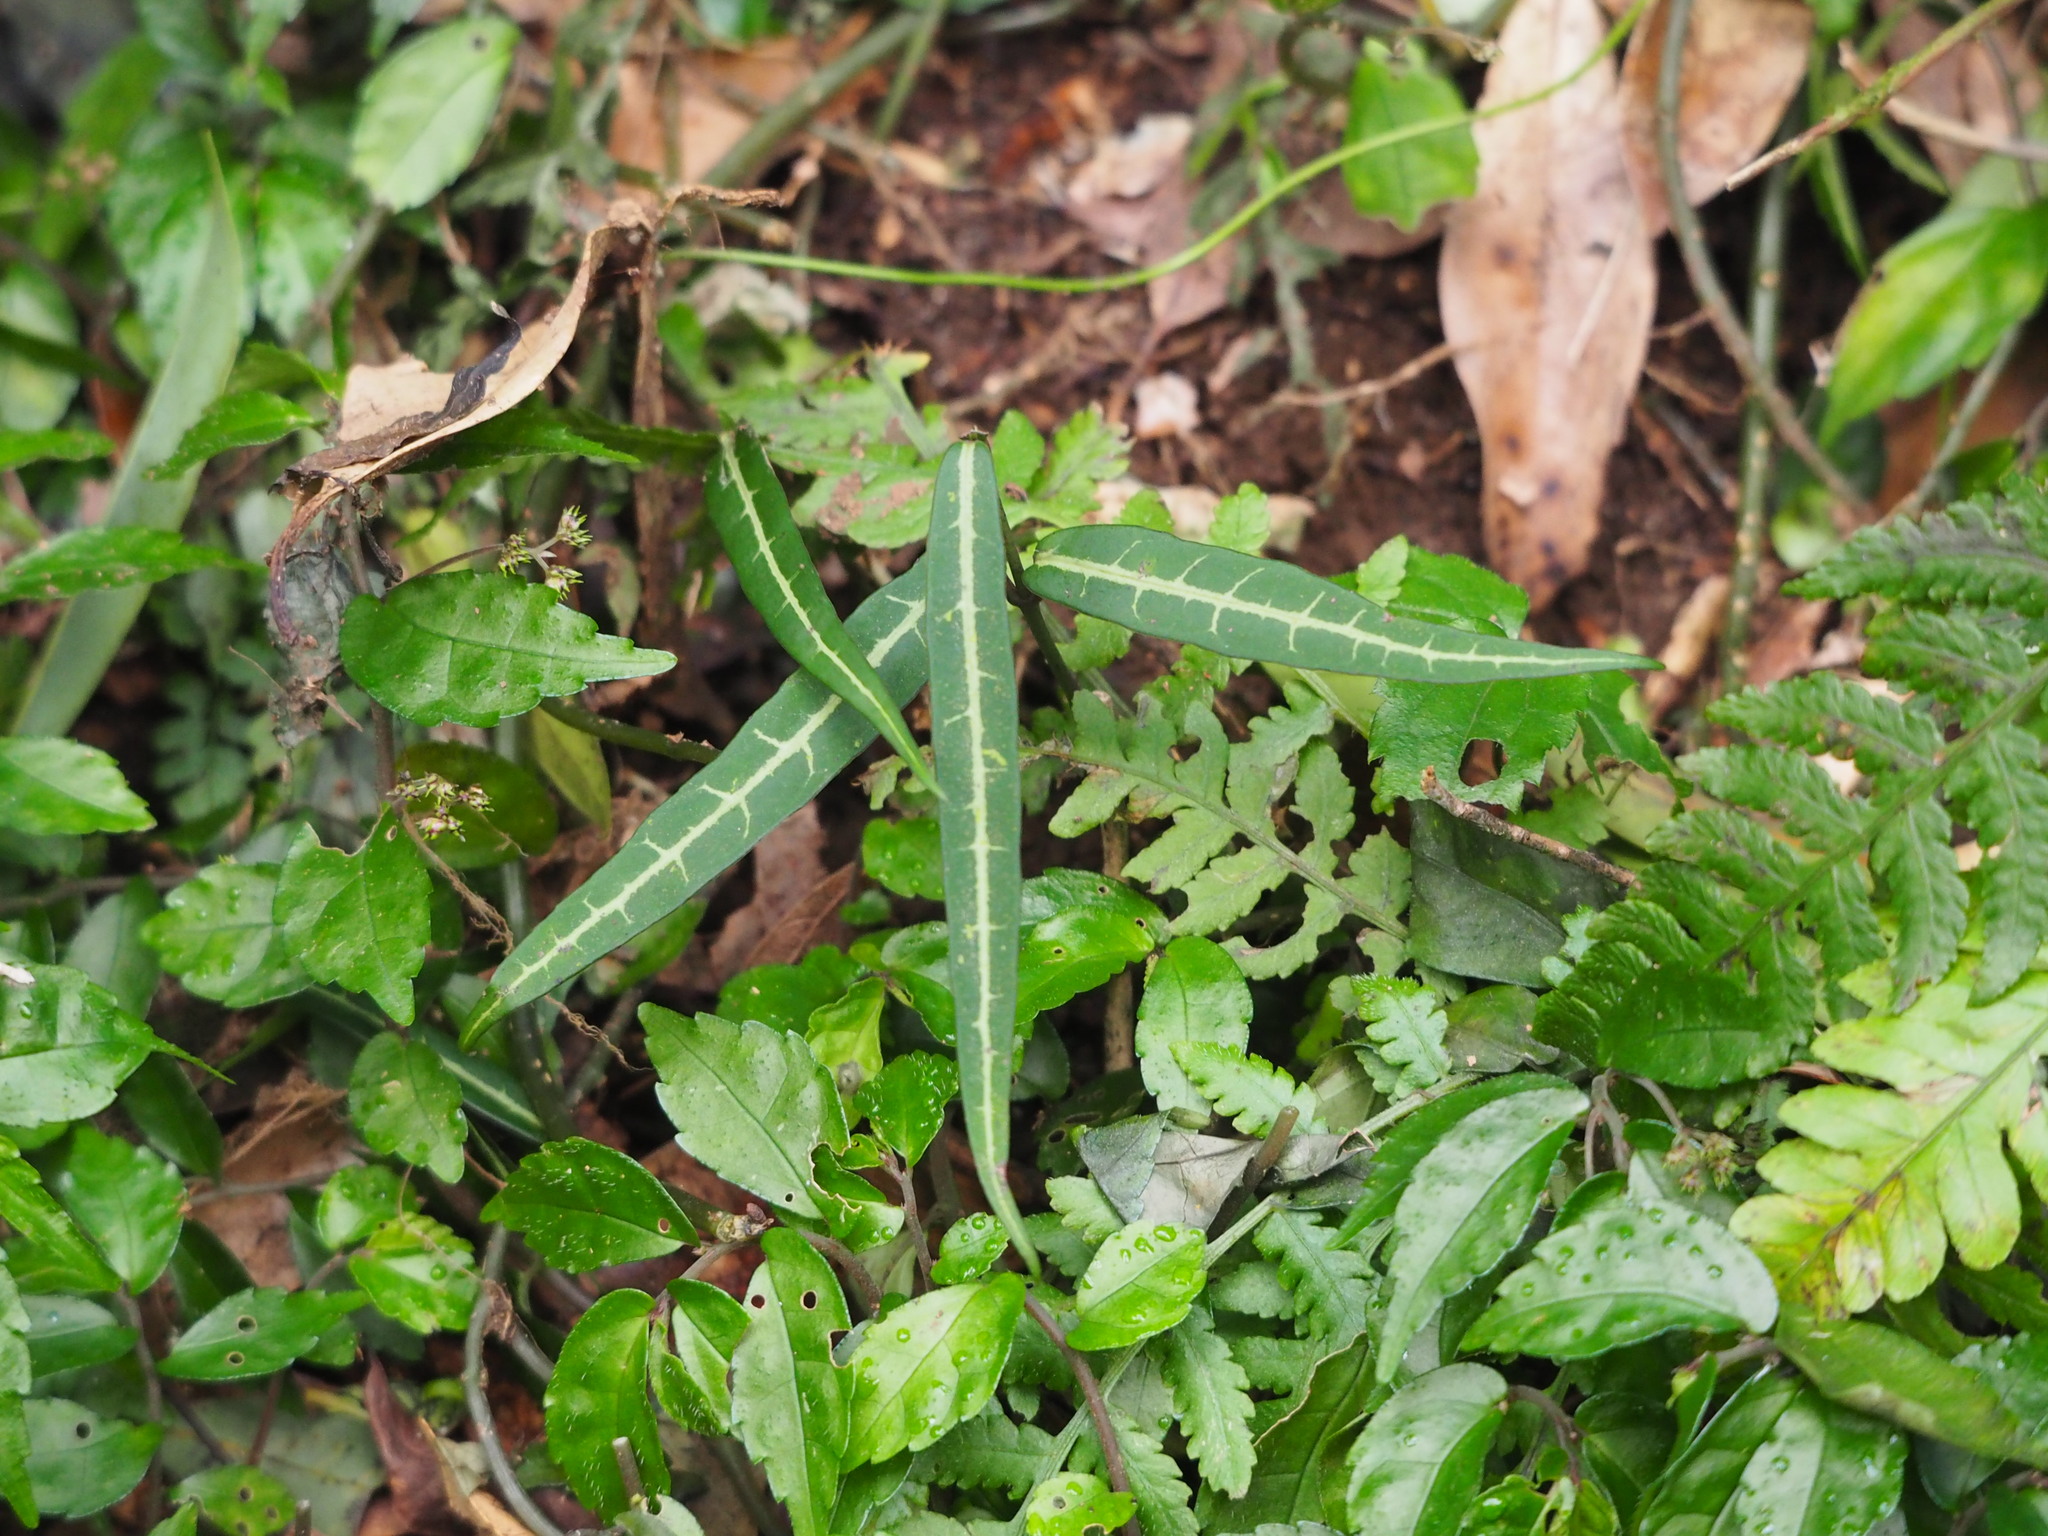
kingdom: Plantae
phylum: Tracheophyta
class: Magnoliopsida
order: Gentianales
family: Loganiaceae
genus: Gardneria
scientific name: Gardneria multiflora
